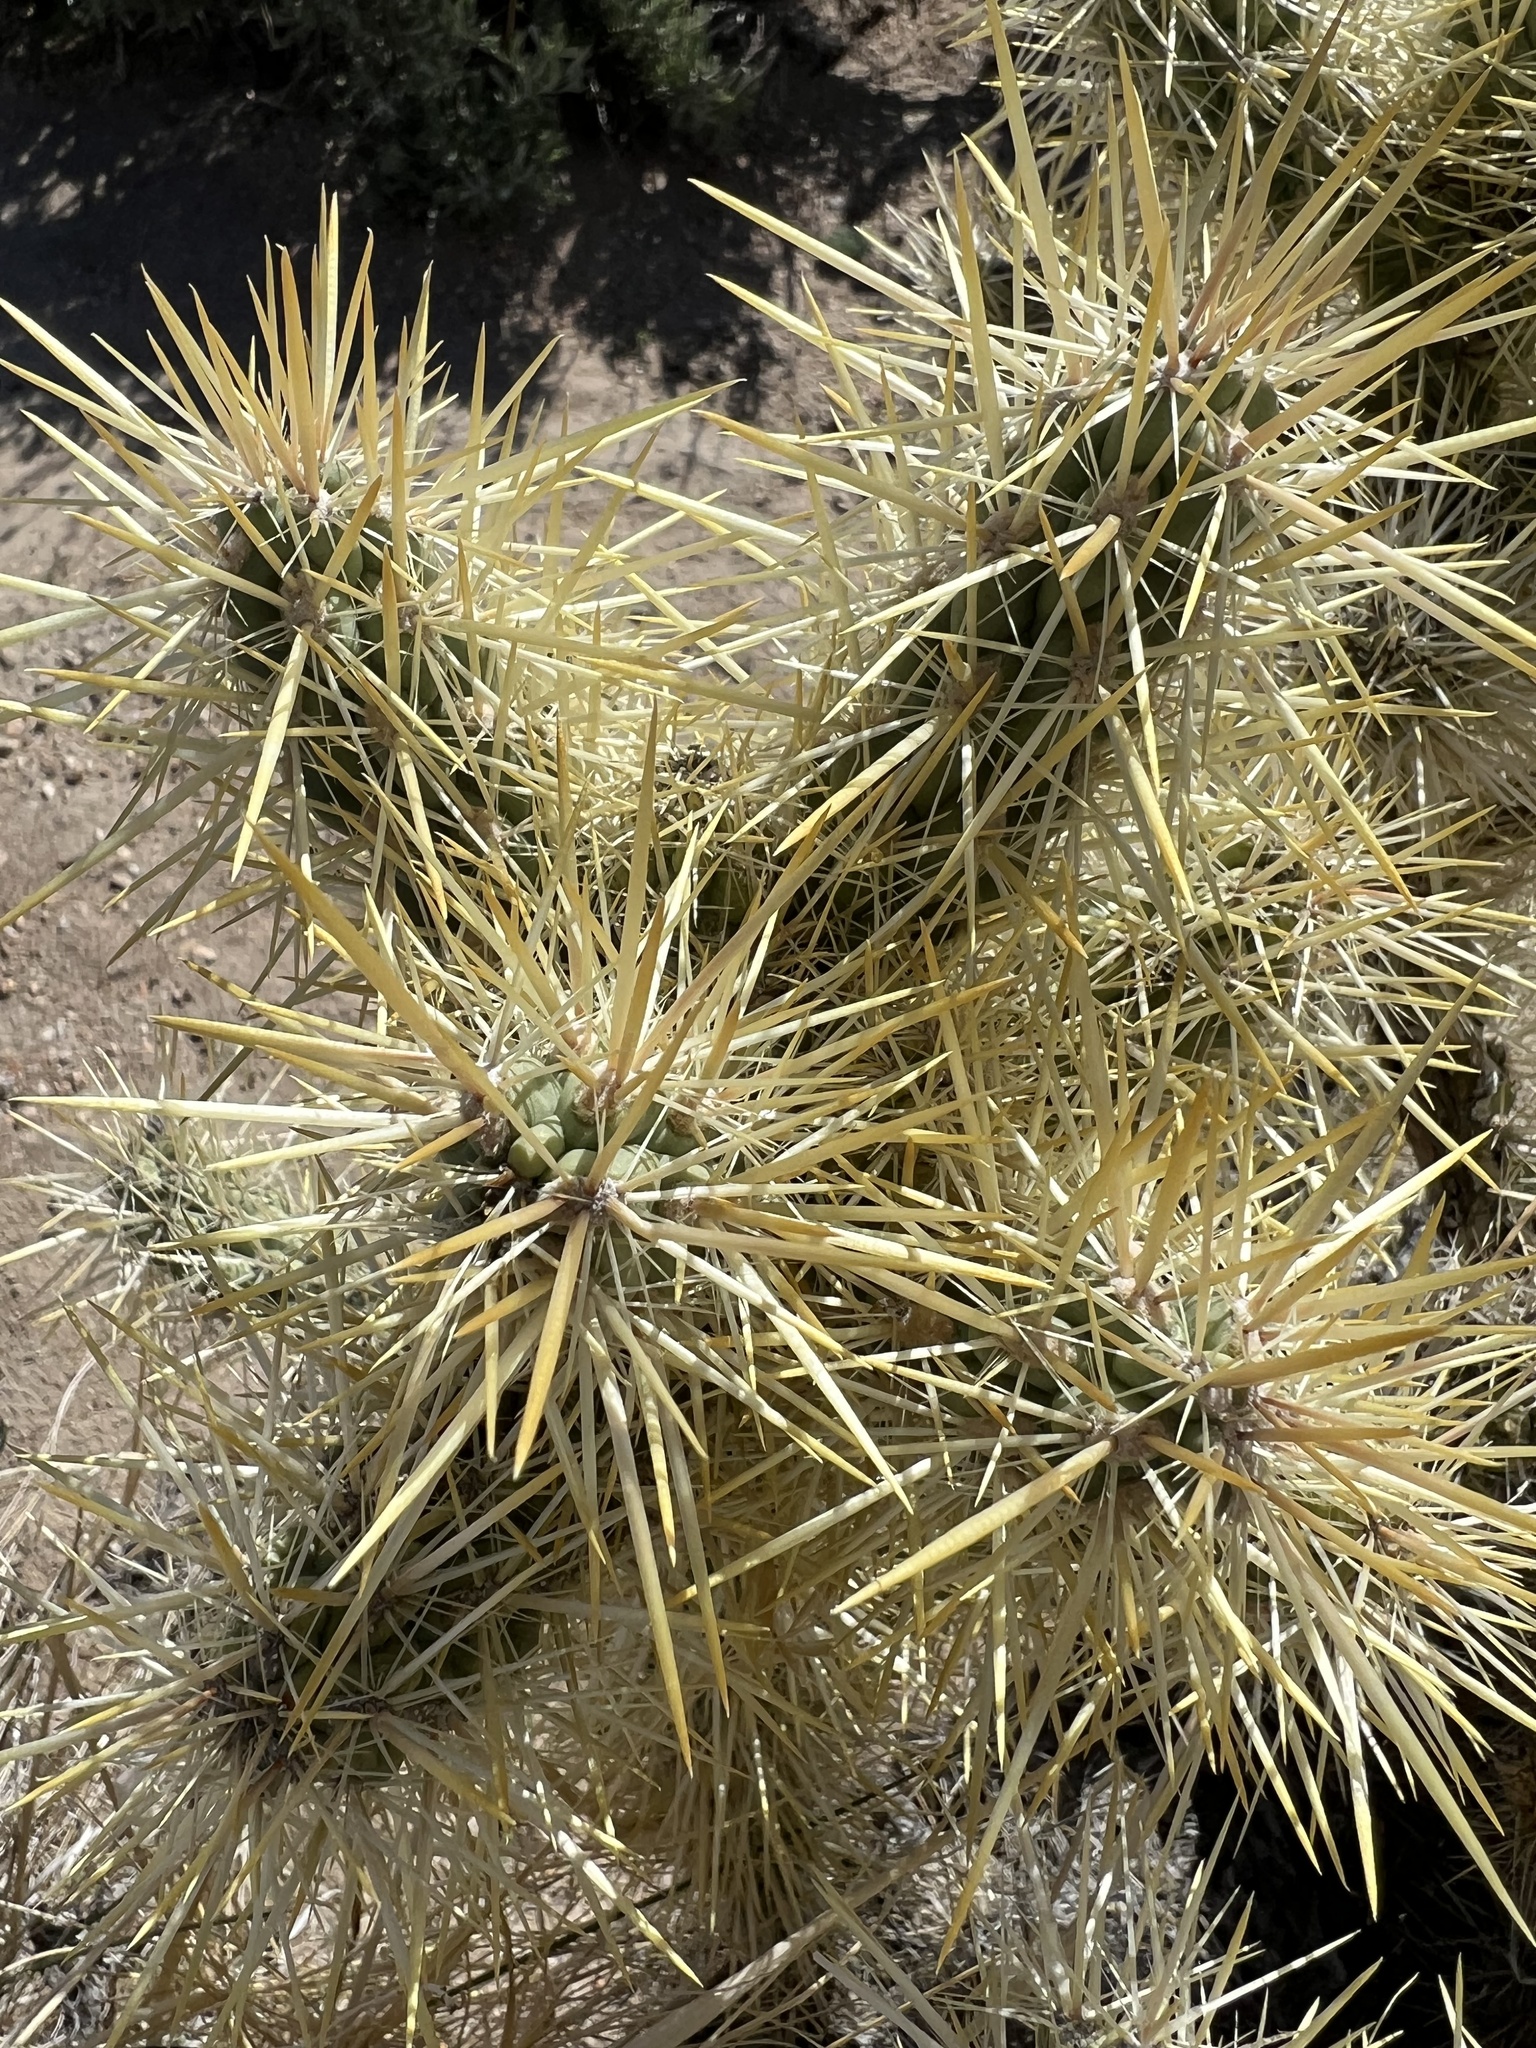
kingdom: Plantae
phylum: Tracheophyta
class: Magnoliopsida
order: Caryophyllales
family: Cactaceae
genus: Cylindropuntia
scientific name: Cylindropuntia echinocarpa
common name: Ground cholla
